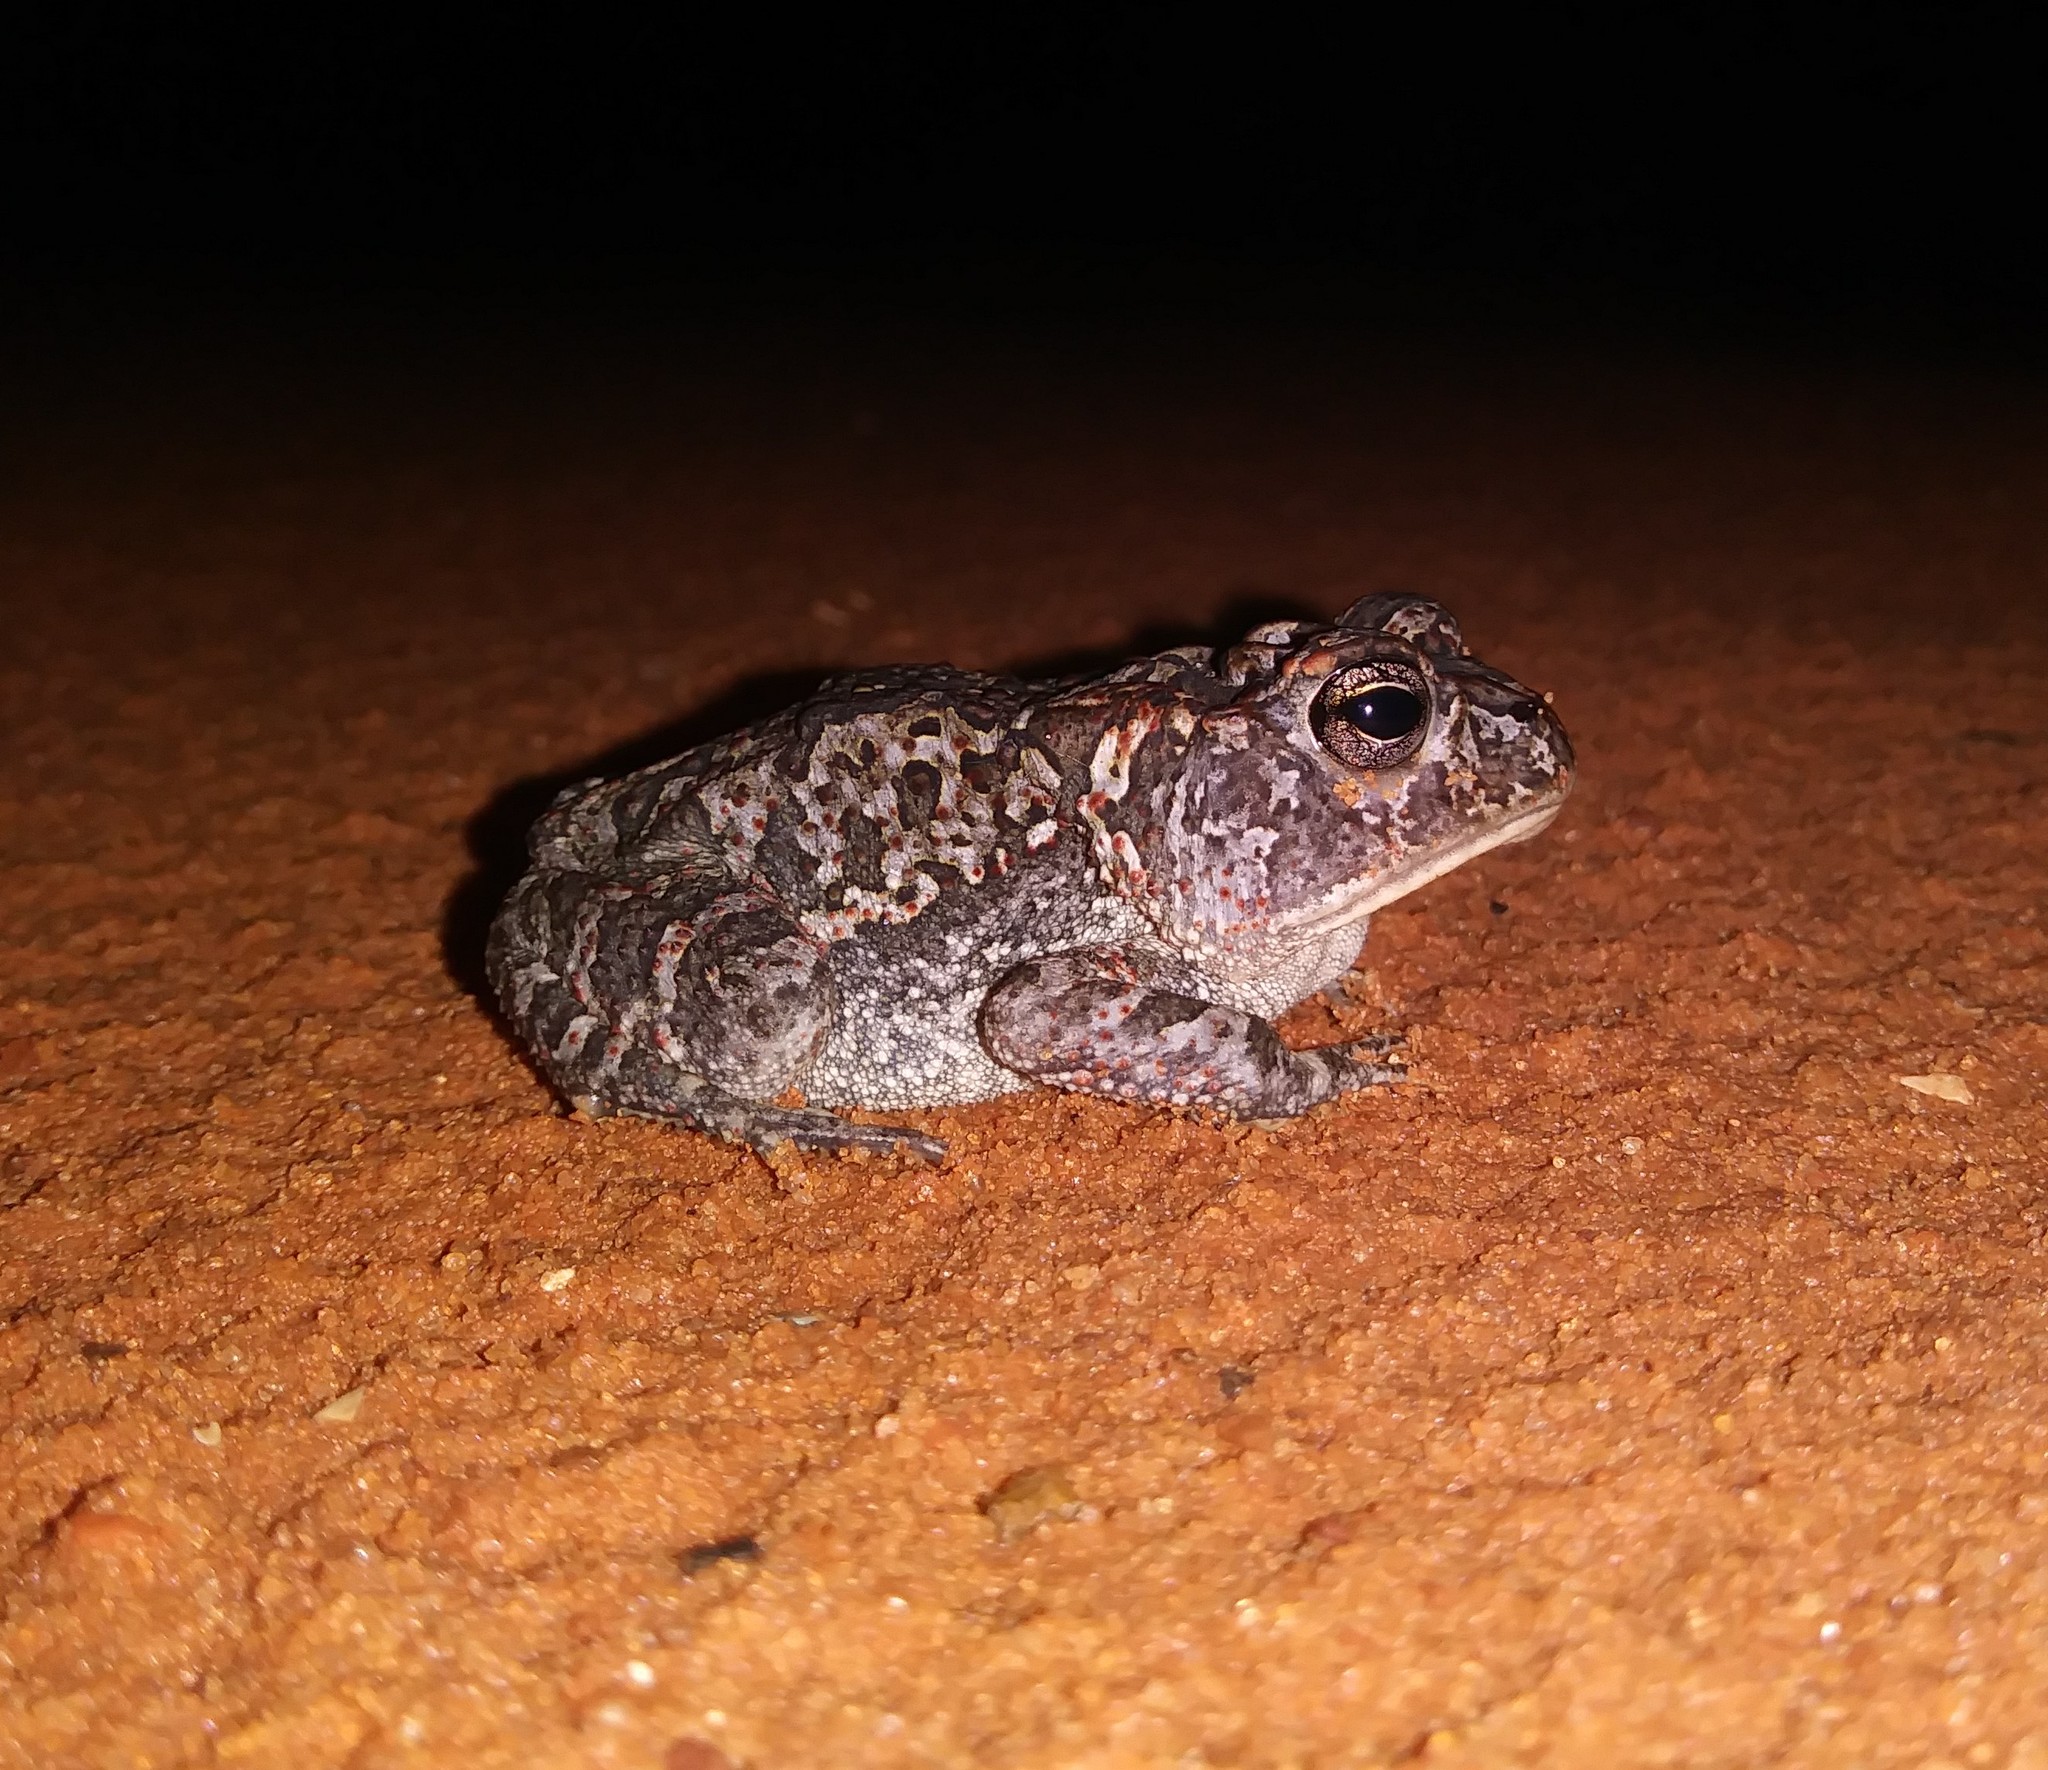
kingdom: Animalia
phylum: Chordata
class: Amphibia
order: Anura
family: Bufonidae
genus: Anaxyrus
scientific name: Anaxyrus terrestris
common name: Southern toad
